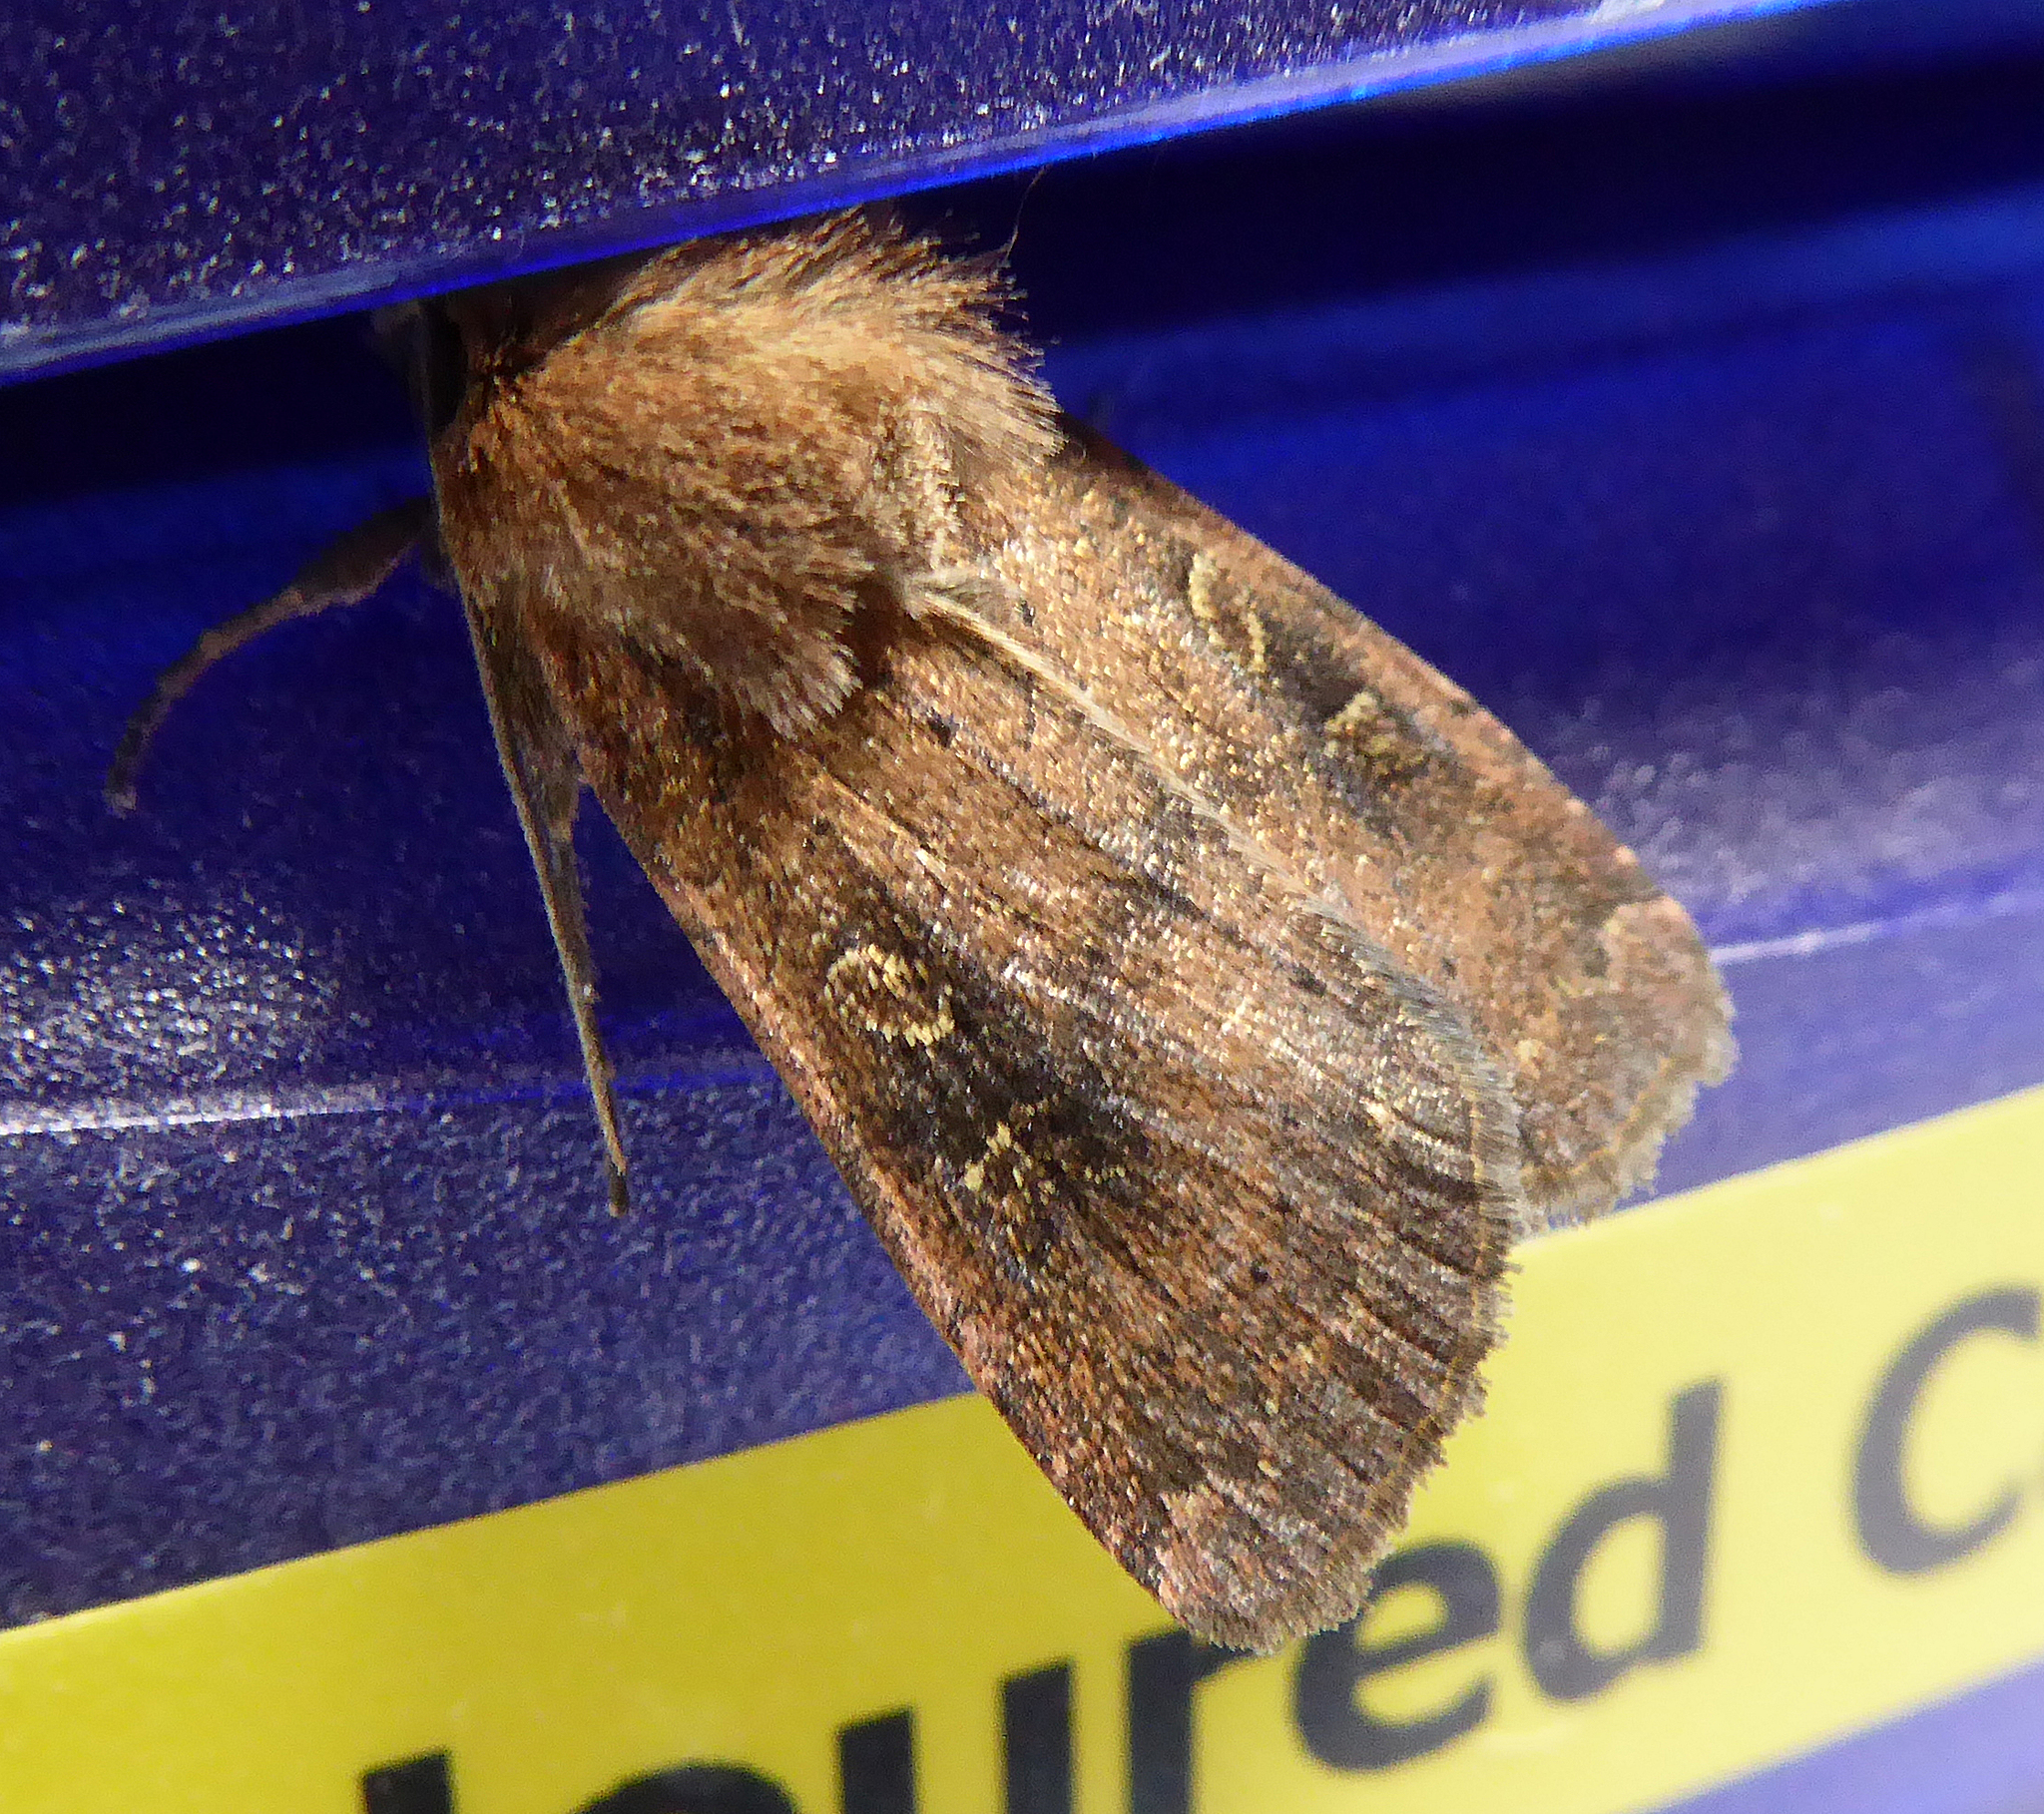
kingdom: Animalia
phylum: Arthropoda
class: Insecta
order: Lepidoptera
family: Noctuidae
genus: Xestia
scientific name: Xestia xanthographa
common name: Square-spot rustic
